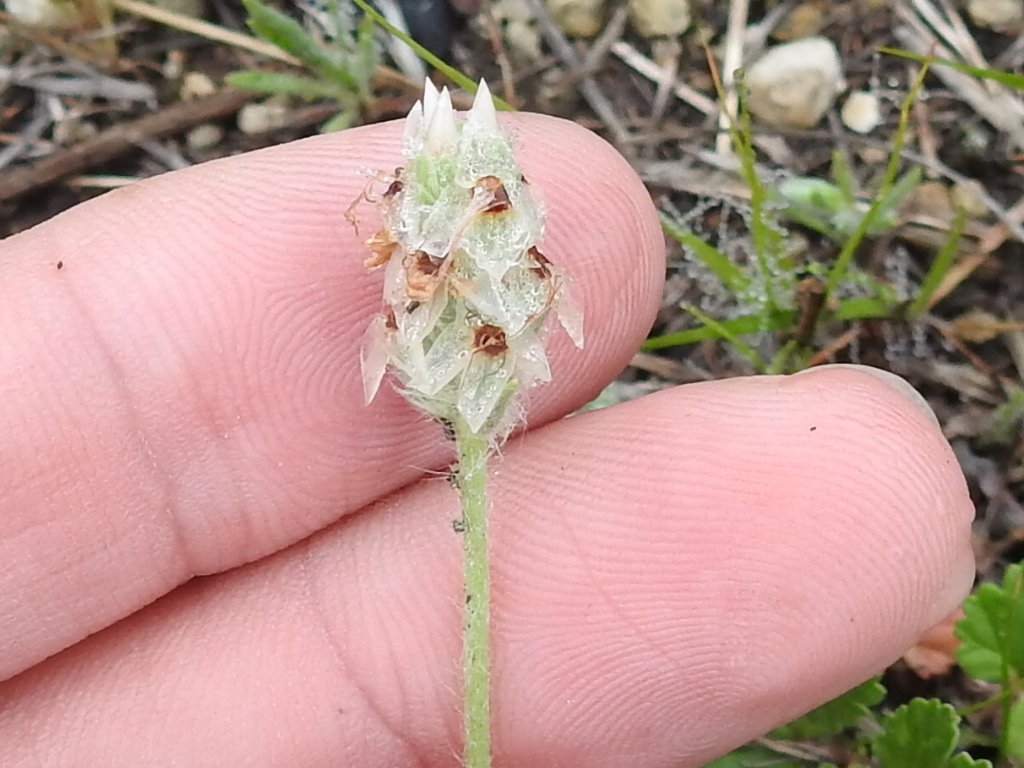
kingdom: Plantae
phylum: Tracheophyta
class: Magnoliopsida
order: Lamiales
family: Plantaginaceae
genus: Plantago
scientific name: Plantago helleri
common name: Heller's plantain
